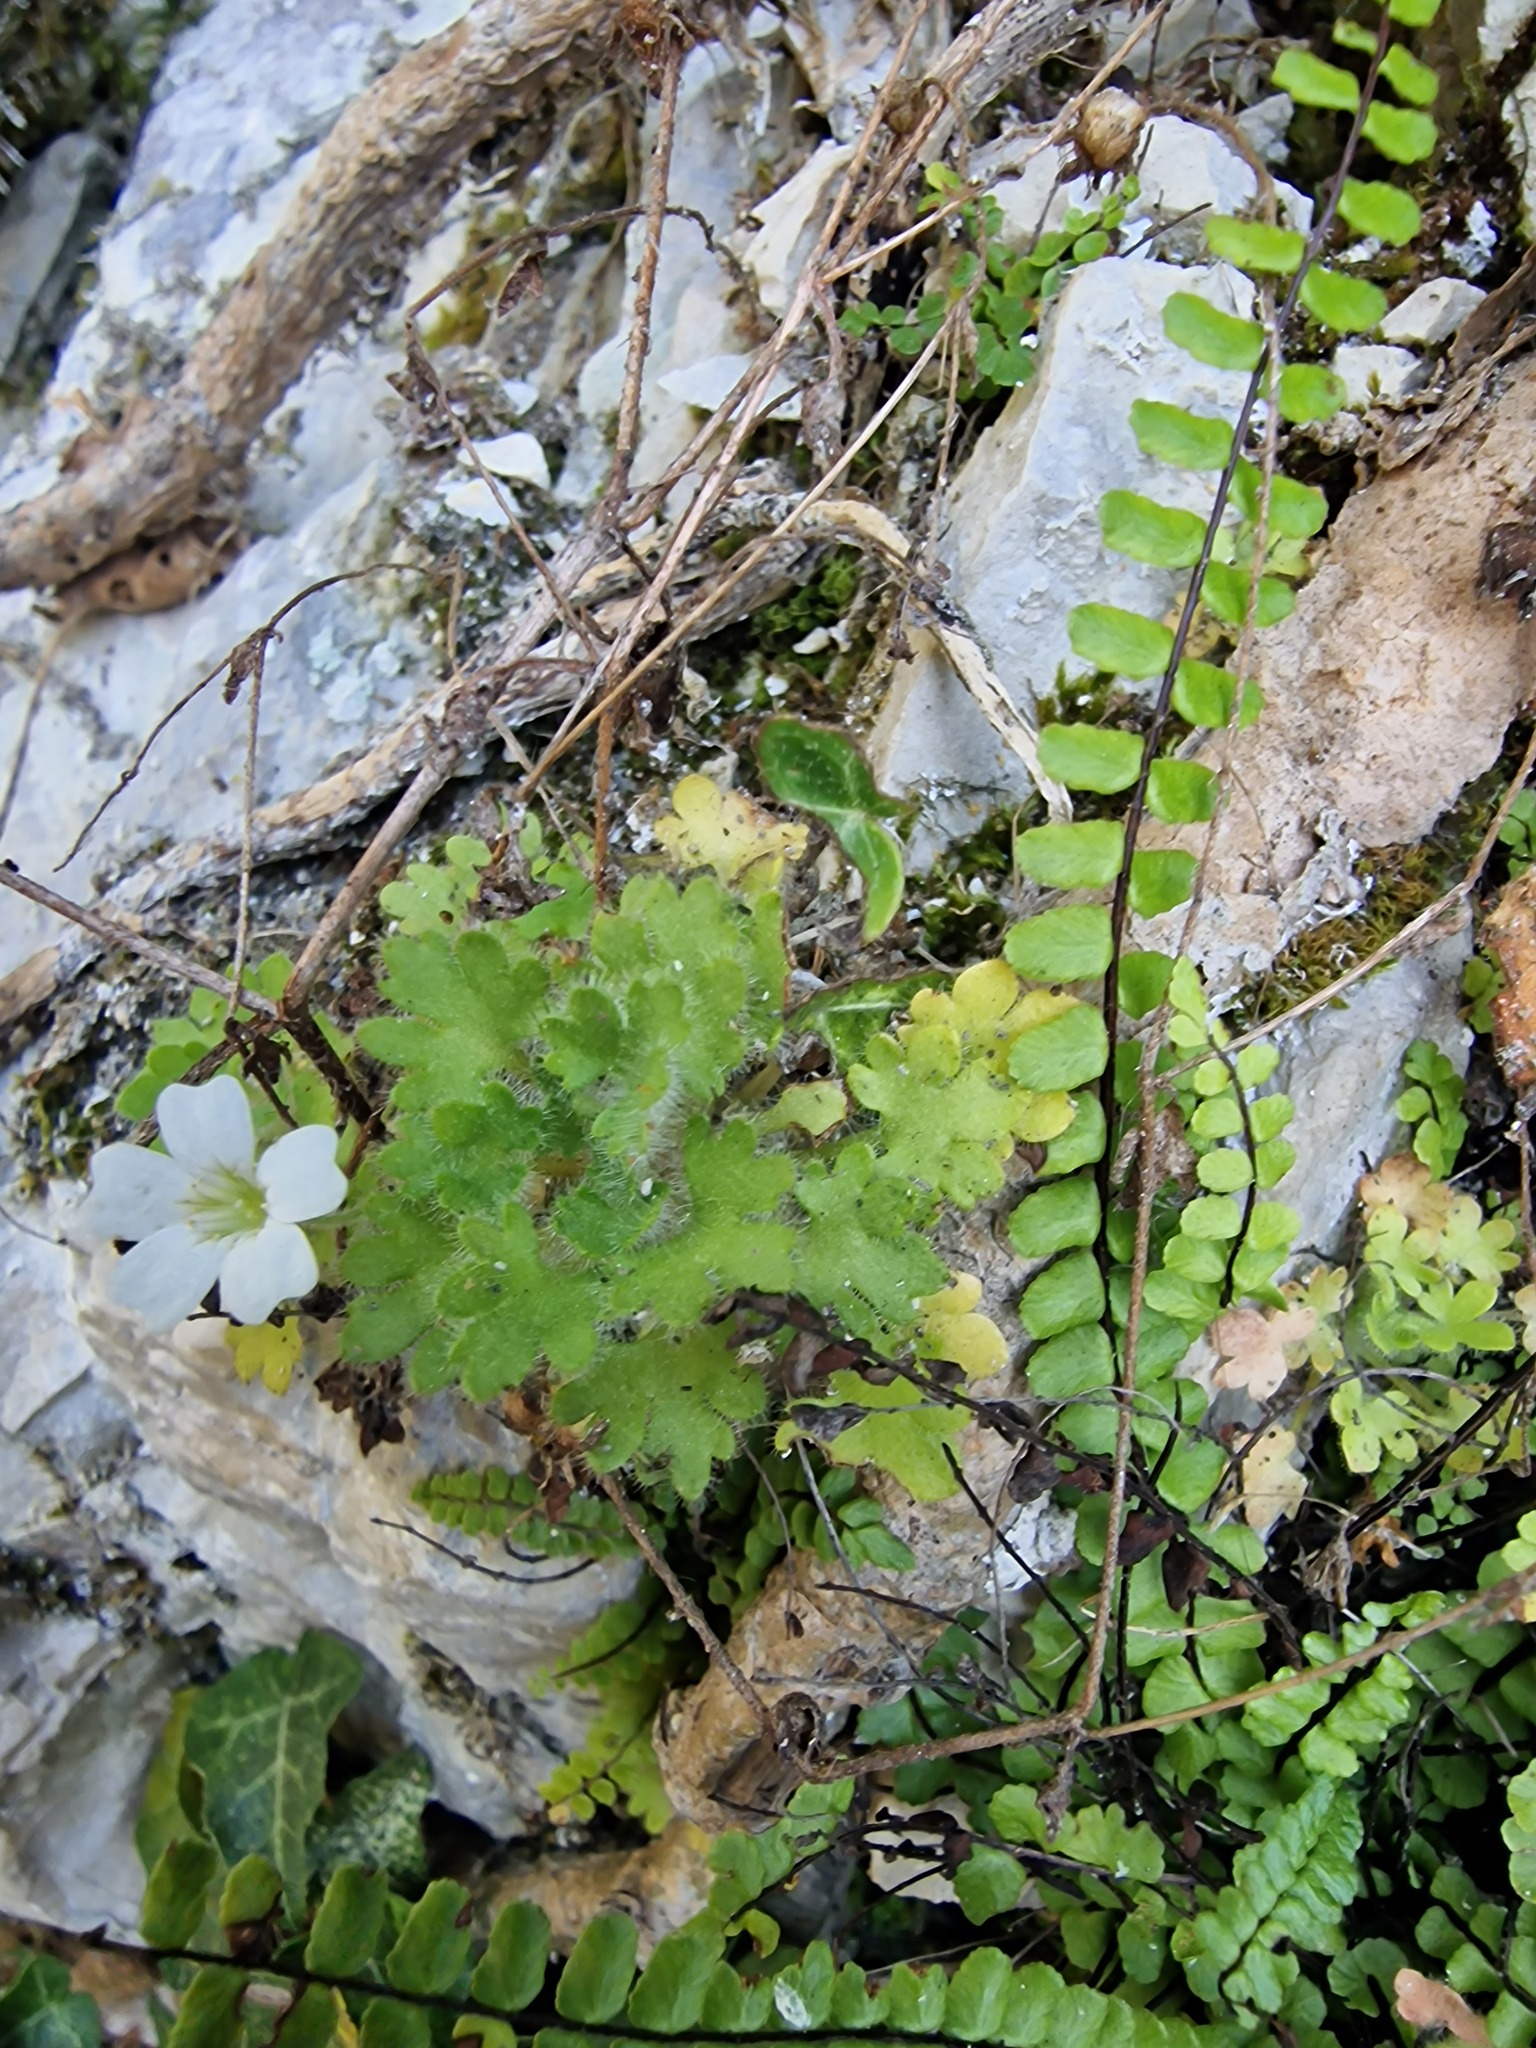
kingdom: Plantae
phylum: Tracheophyta
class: Magnoliopsida
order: Saxifragales
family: Saxifragaceae
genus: Saxifraga
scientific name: Saxifraga petraea
